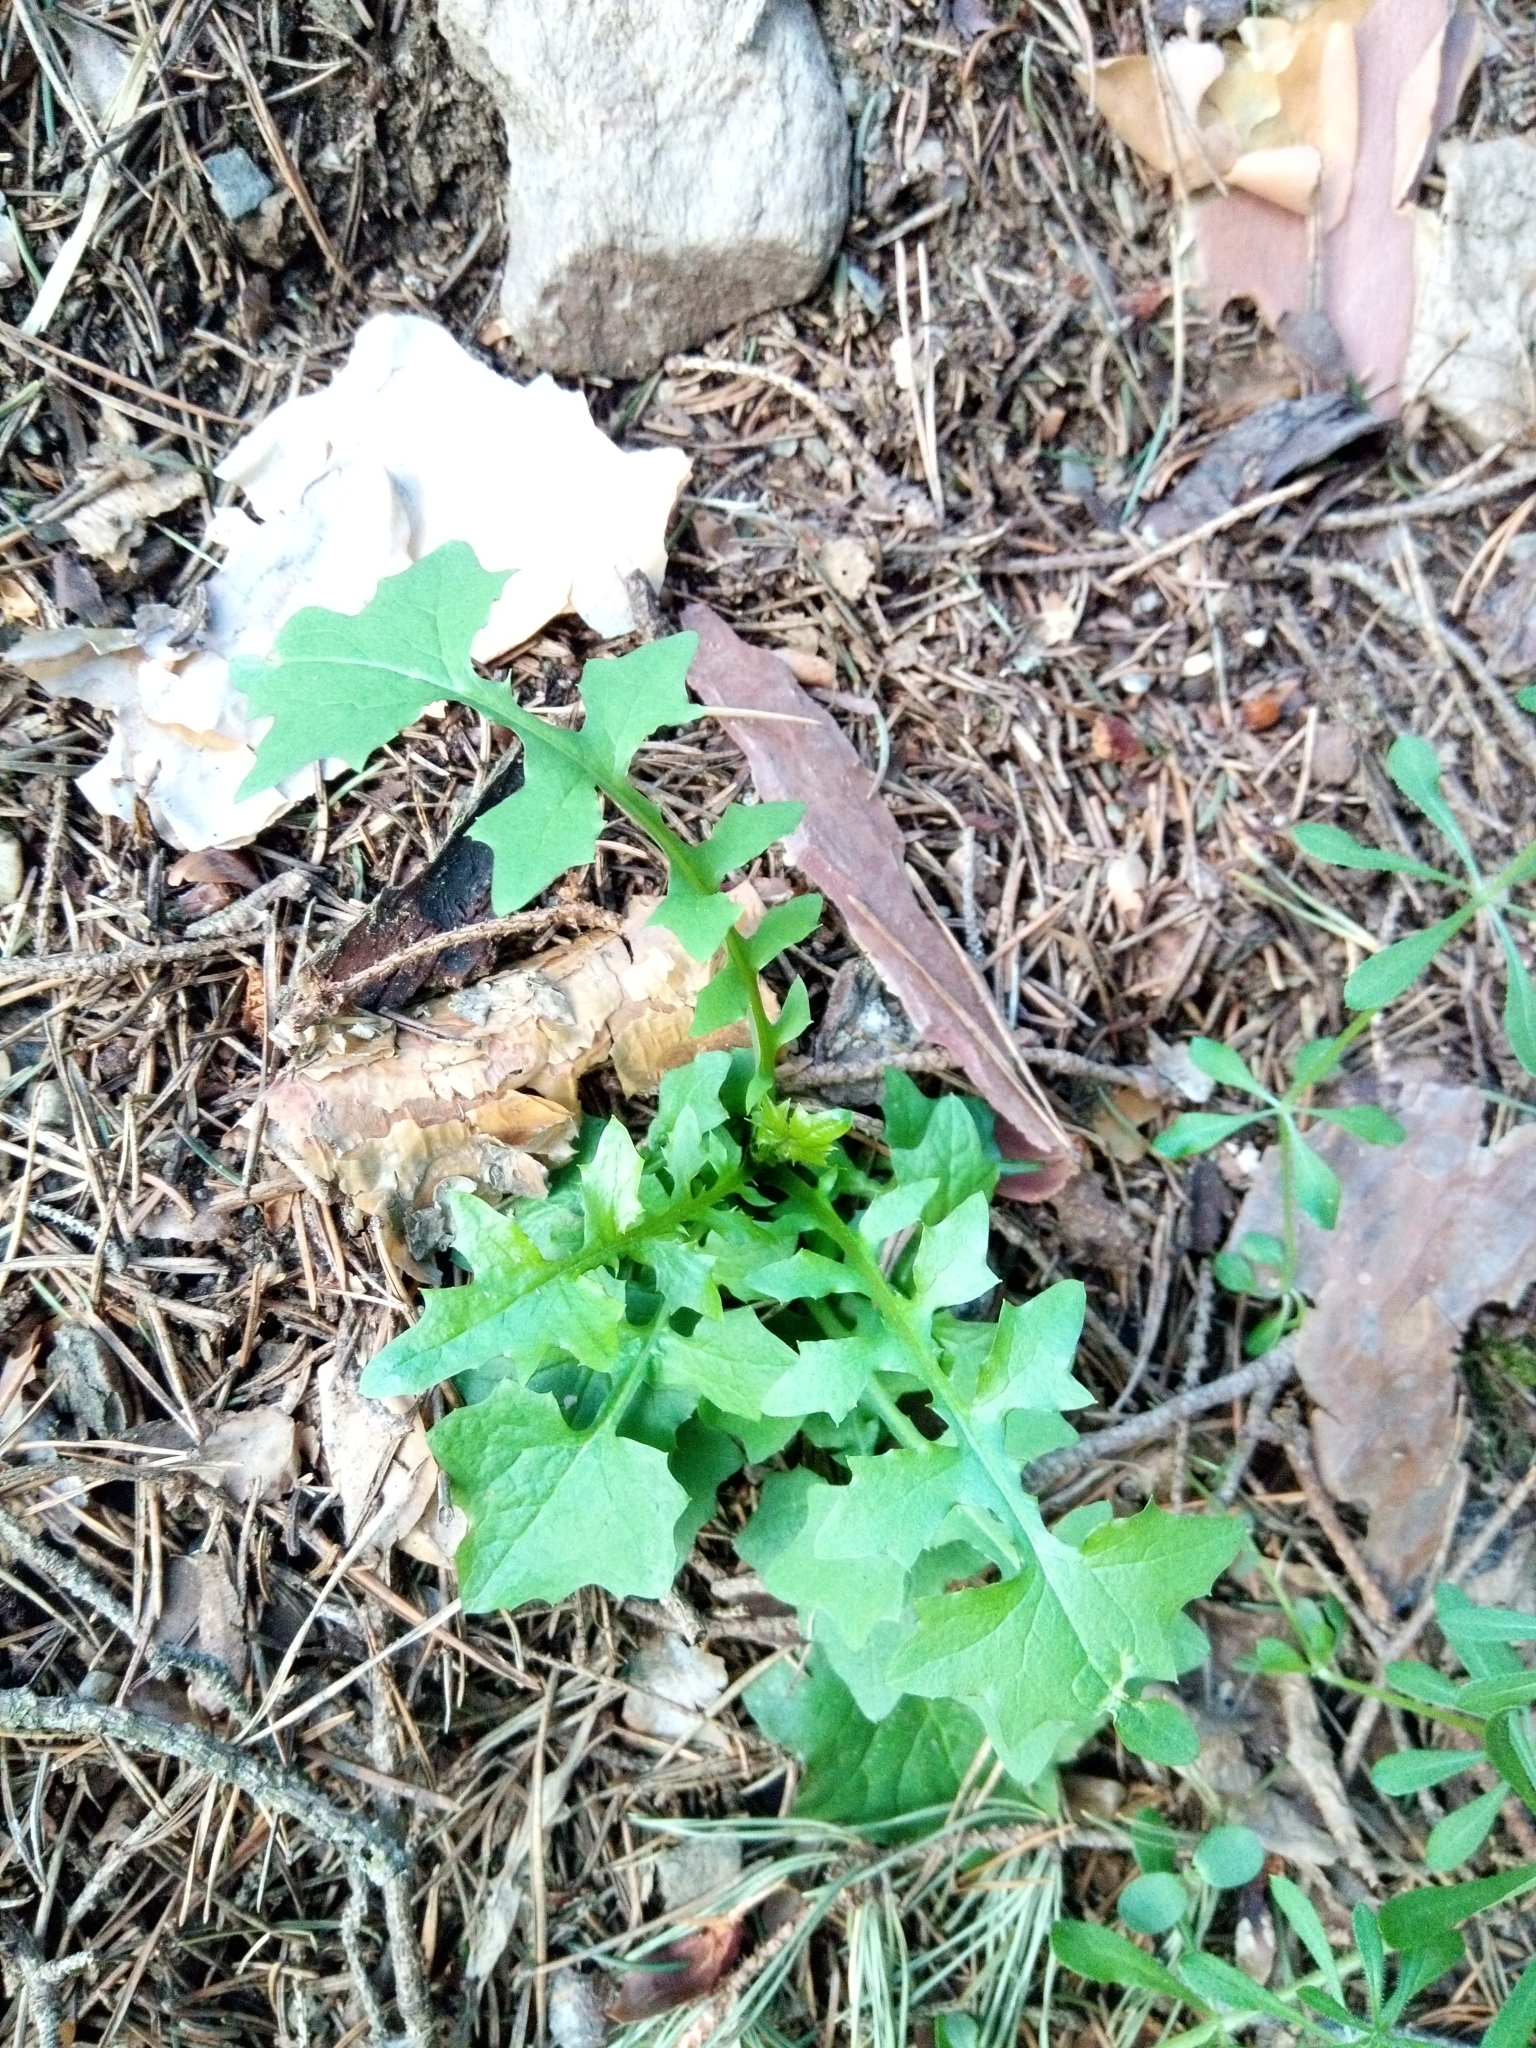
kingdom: Plantae
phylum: Tracheophyta
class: Magnoliopsida
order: Asterales
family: Asteraceae
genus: Mycelis
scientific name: Mycelis muralis
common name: Wall lettuce
